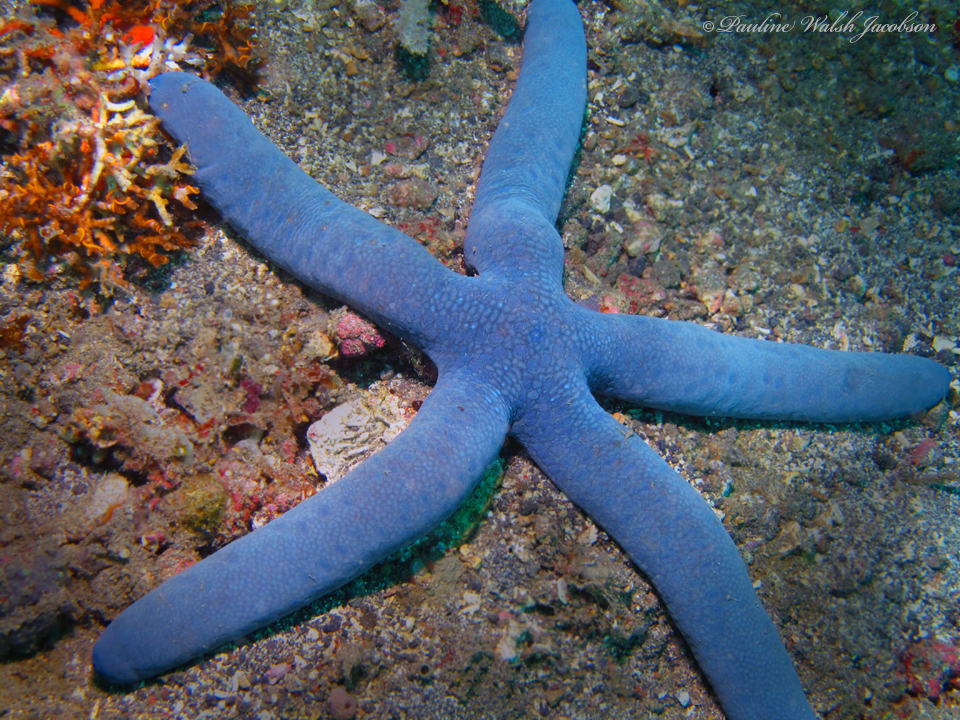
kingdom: Animalia
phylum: Echinodermata
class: Asteroidea
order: Valvatida
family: Ophidiasteridae
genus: Linckia
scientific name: Linckia laevigata
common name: Azure sea star
